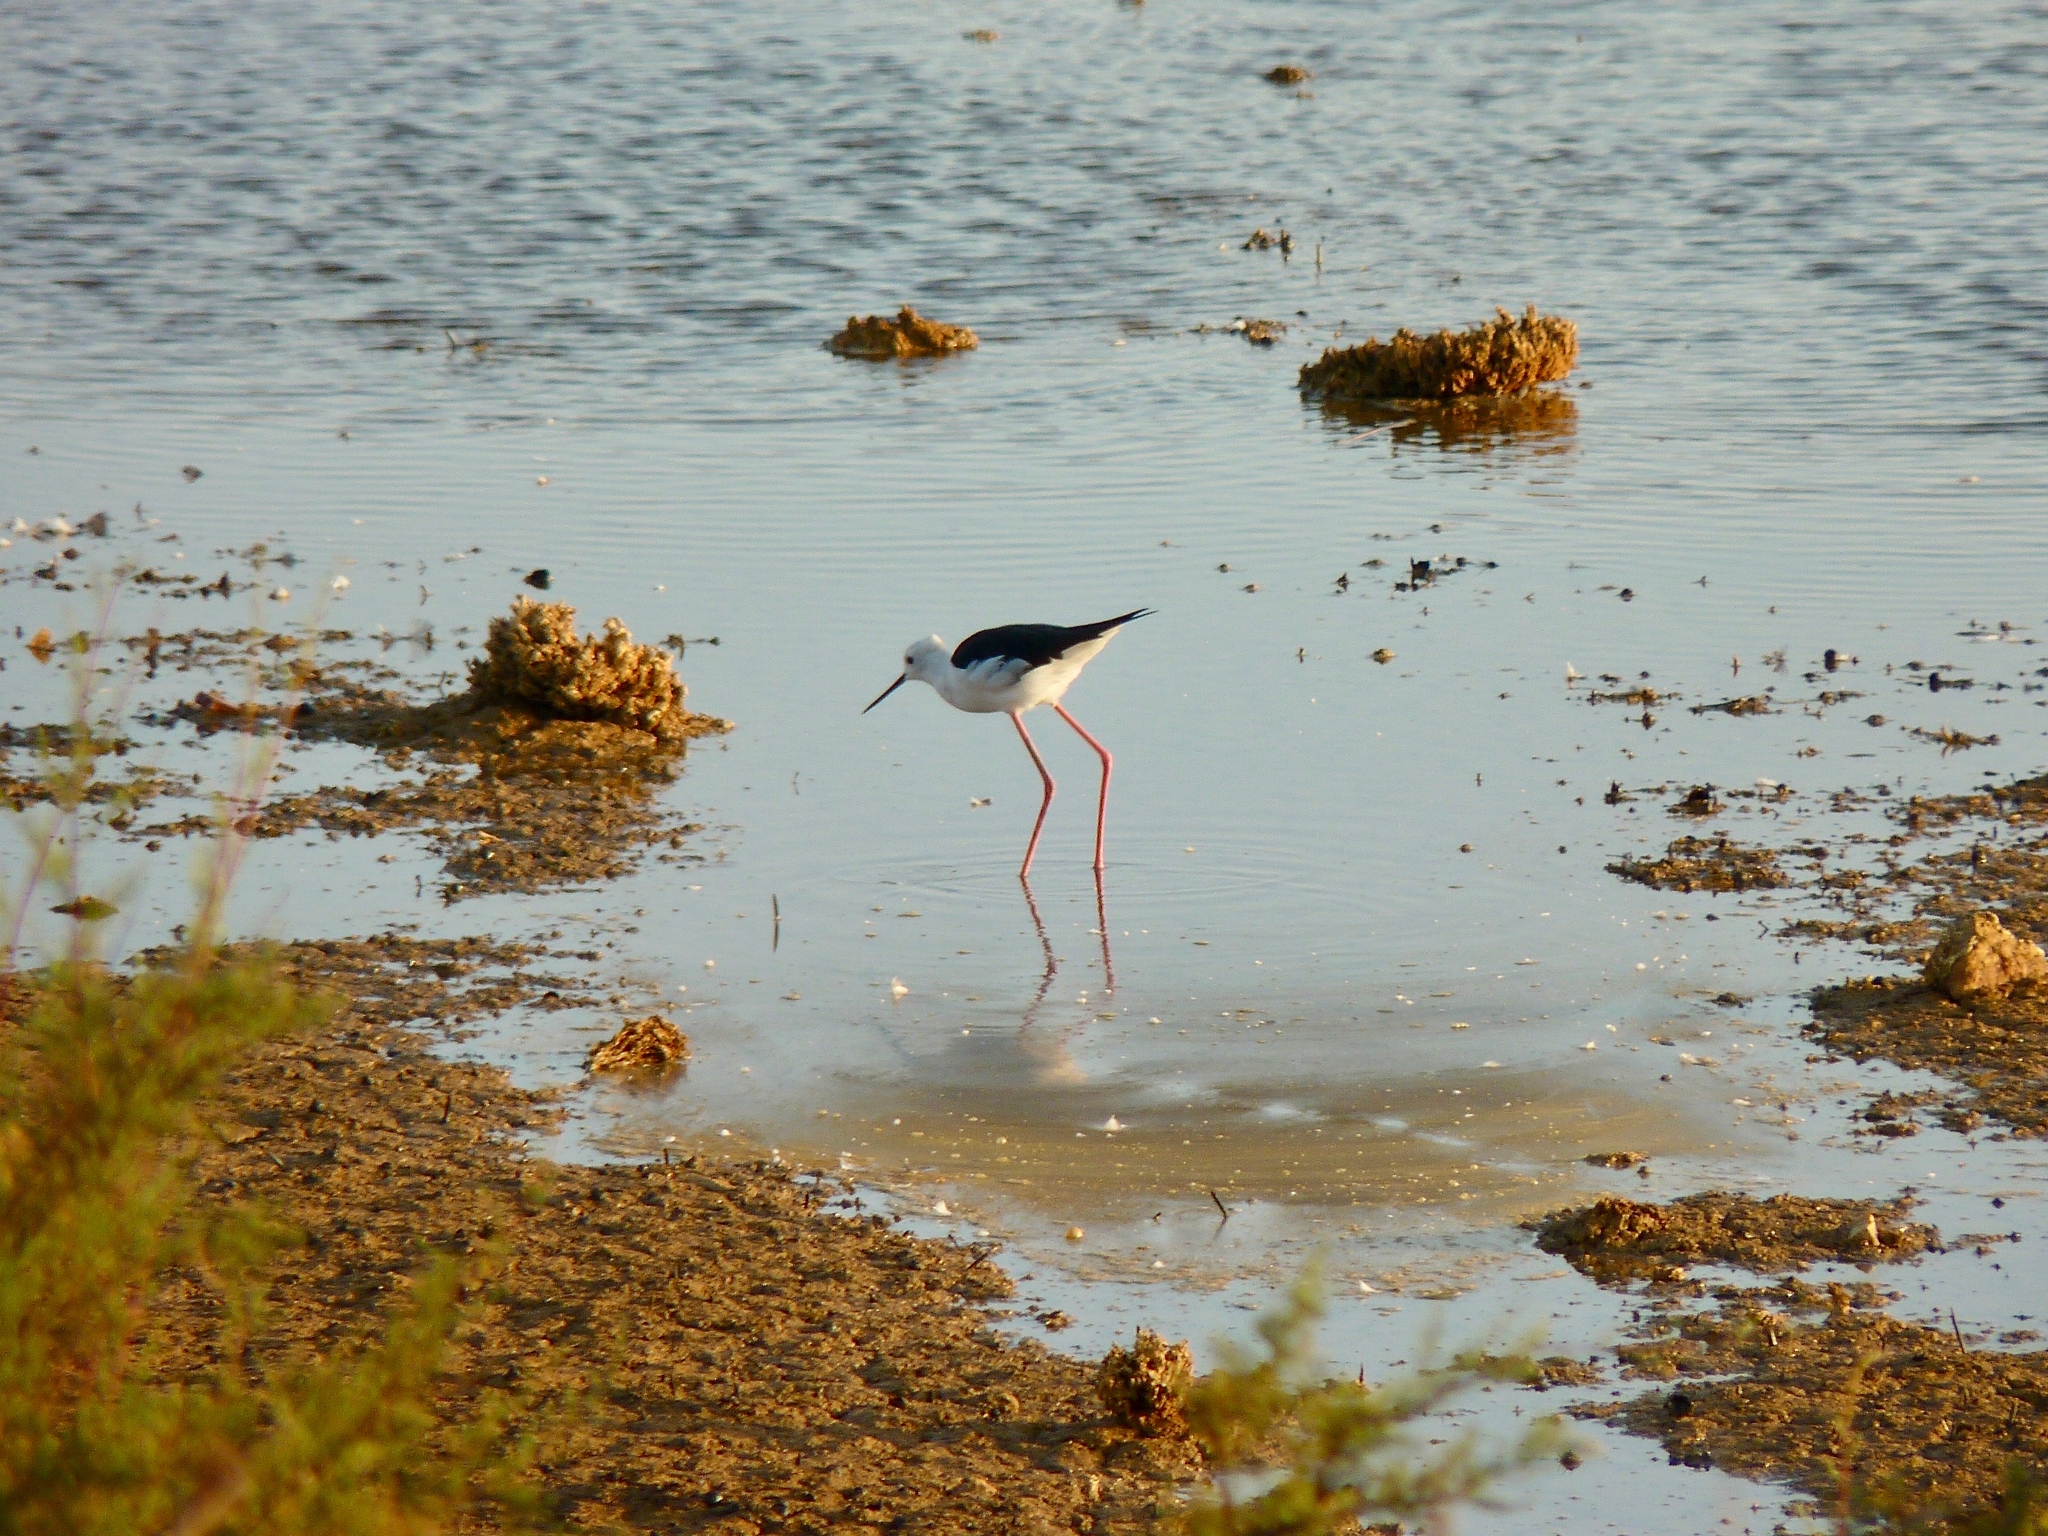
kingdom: Animalia
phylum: Chordata
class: Aves
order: Charadriiformes
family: Recurvirostridae
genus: Himantopus
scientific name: Himantopus himantopus
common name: Black-winged stilt
